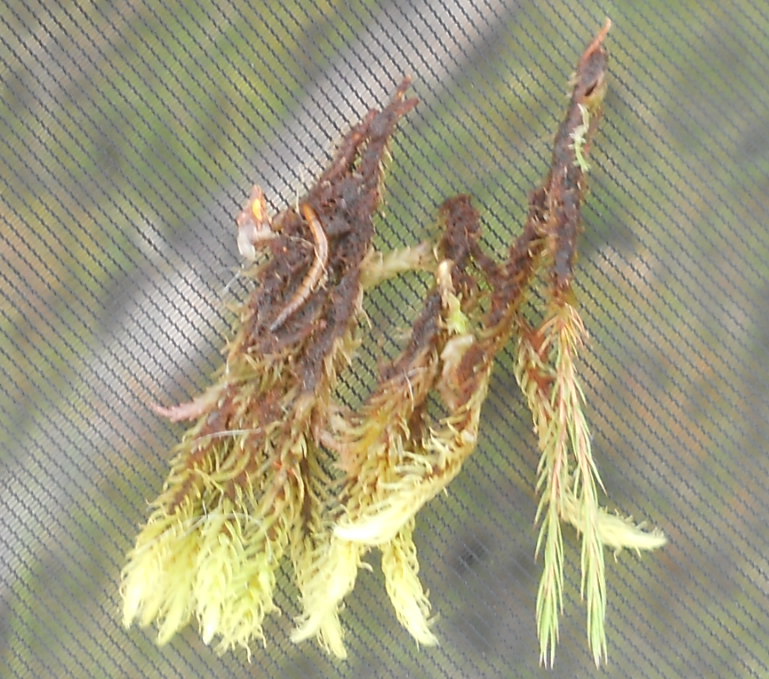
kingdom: Plantae
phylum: Bryophyta
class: Bryopsida
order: Aulacomniales
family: Aulacomniaceae
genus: Aulacomnium
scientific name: Aulacomnium palustre
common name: Bog groove-moss
